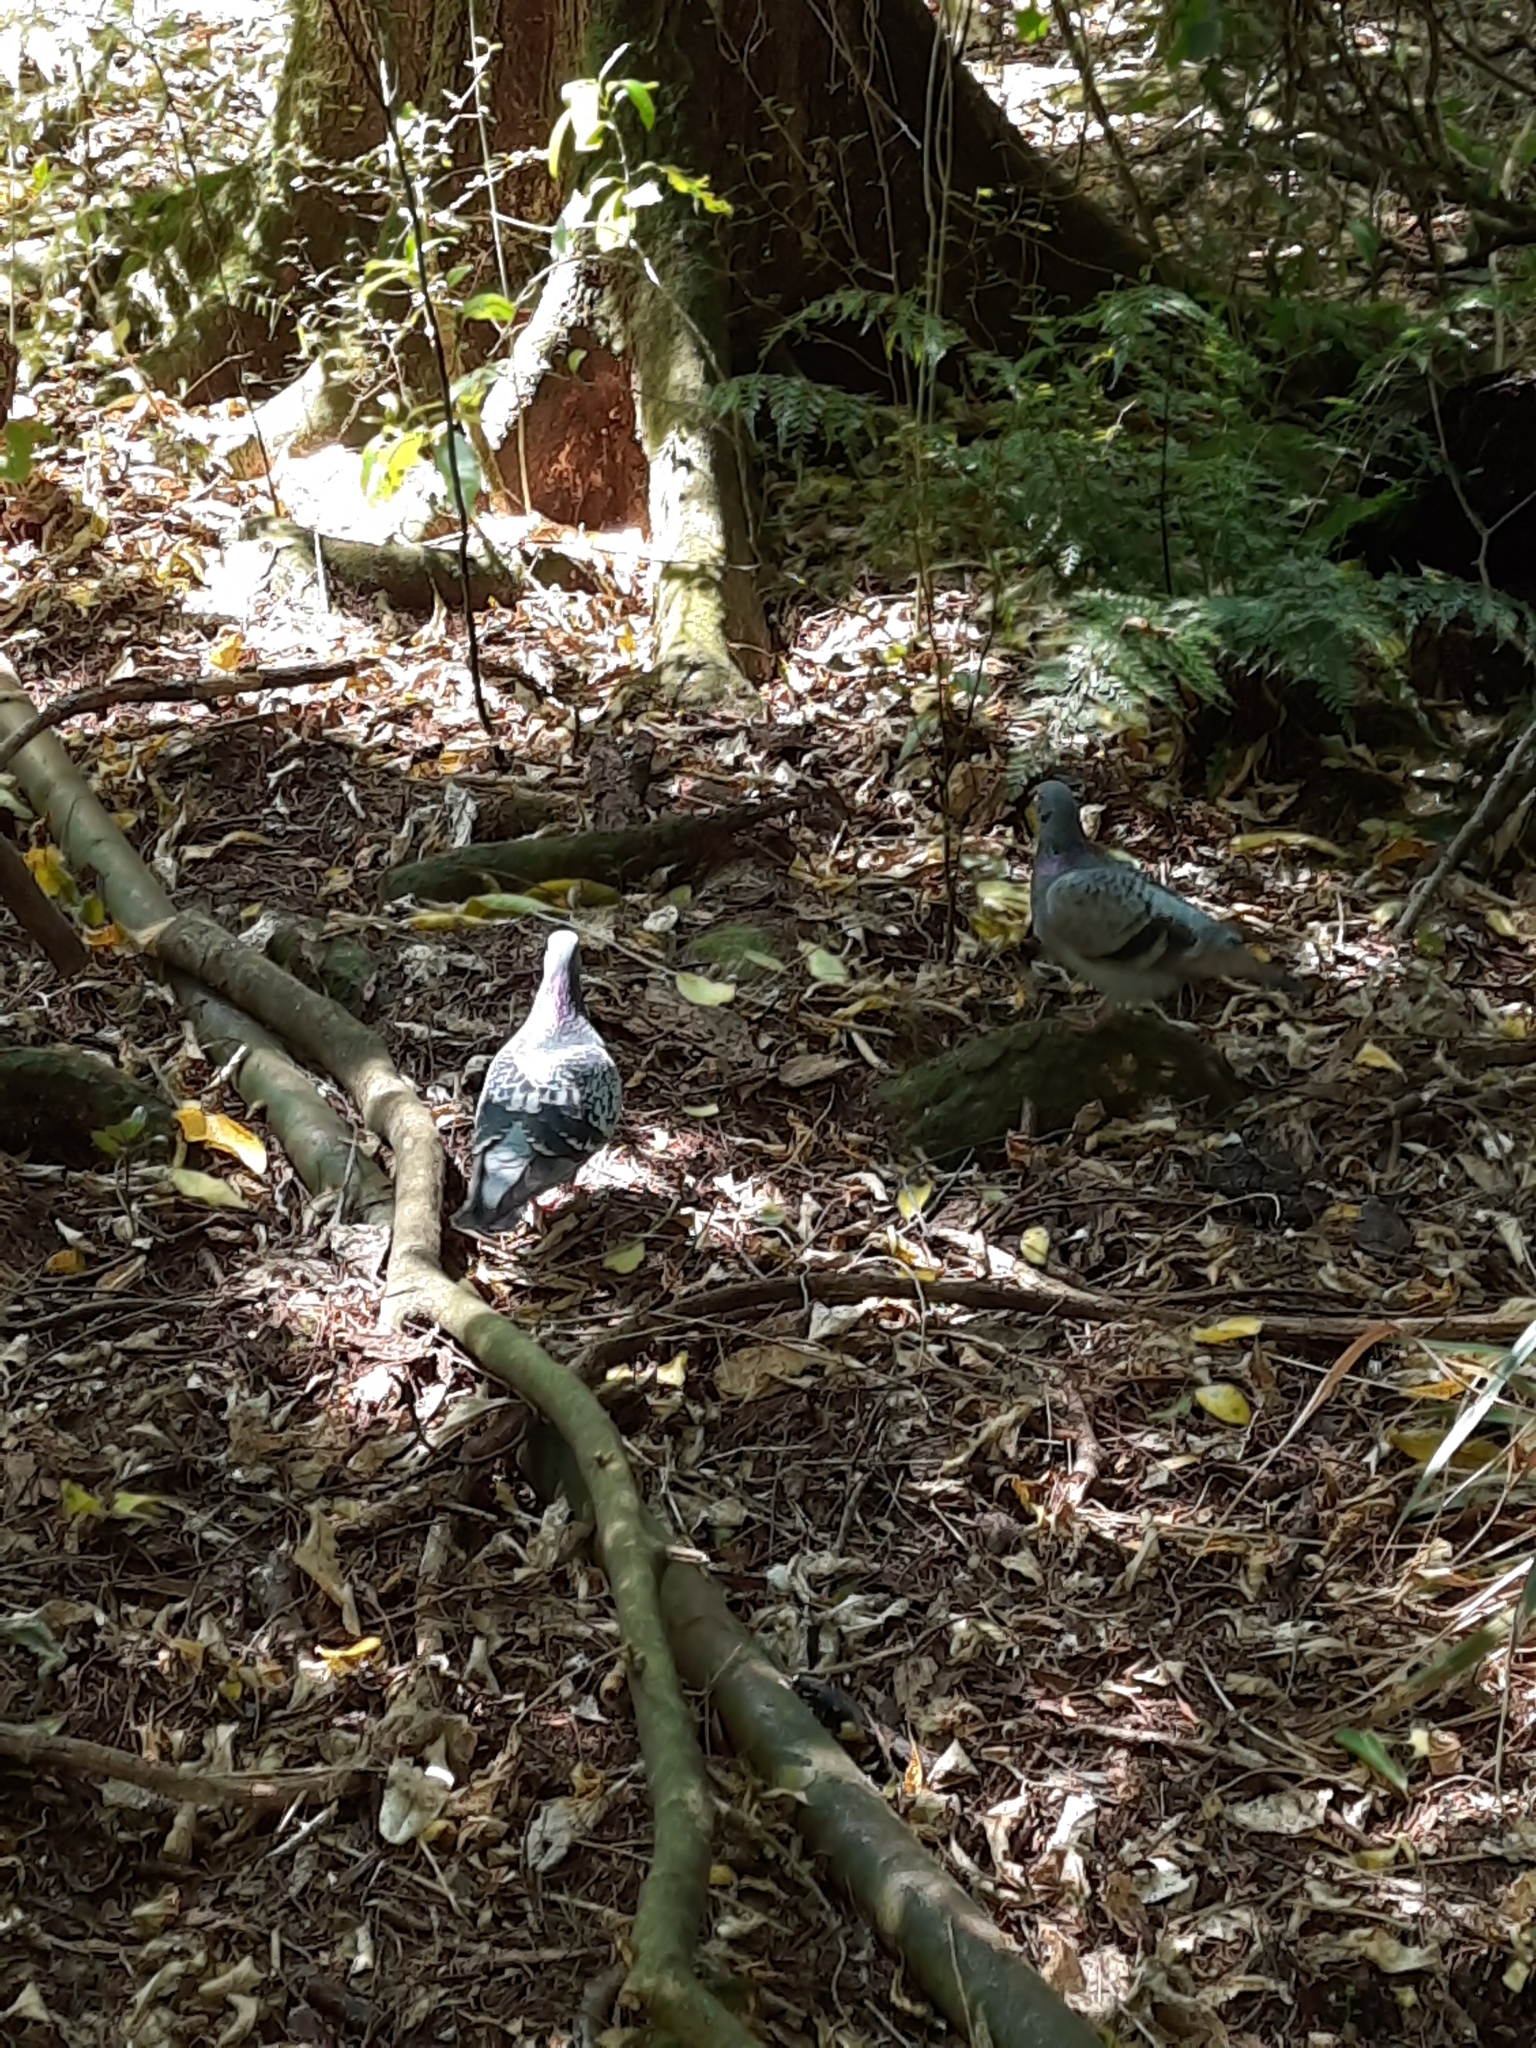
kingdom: Animalia
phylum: Chordata
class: Aves
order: Columbiformes
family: Columbidae
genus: Columba
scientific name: Columba livia
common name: Rock pigeon
